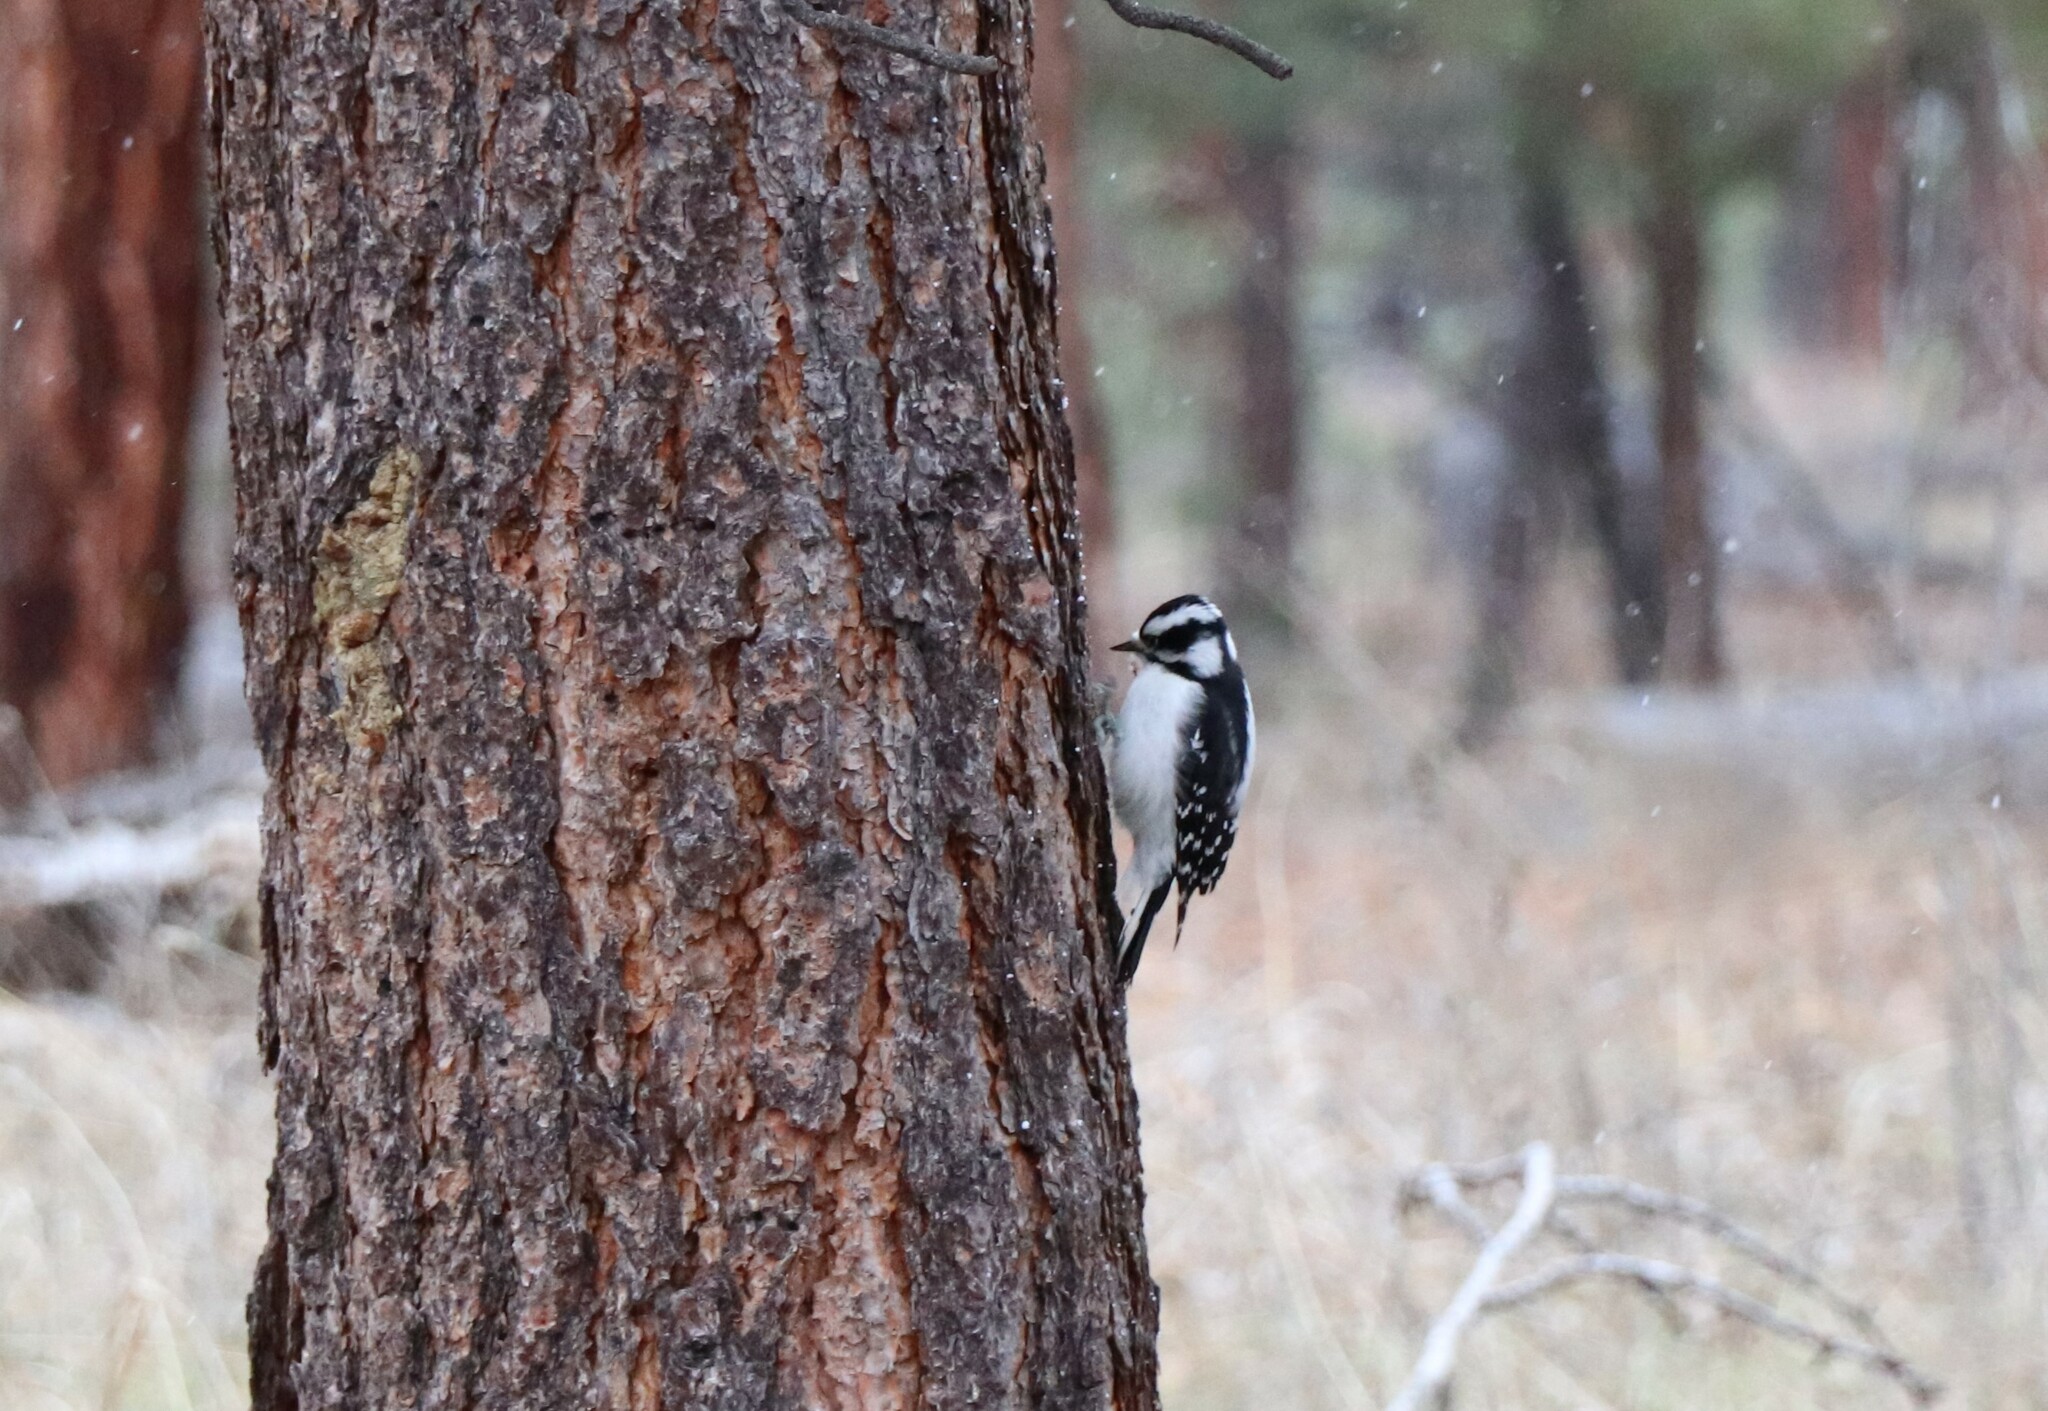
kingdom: Animalia
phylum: Chordata
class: Aves
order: Piciformes
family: Picidae
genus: Dryobates
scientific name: Dryobates pubescens
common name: Downy woodpecker
